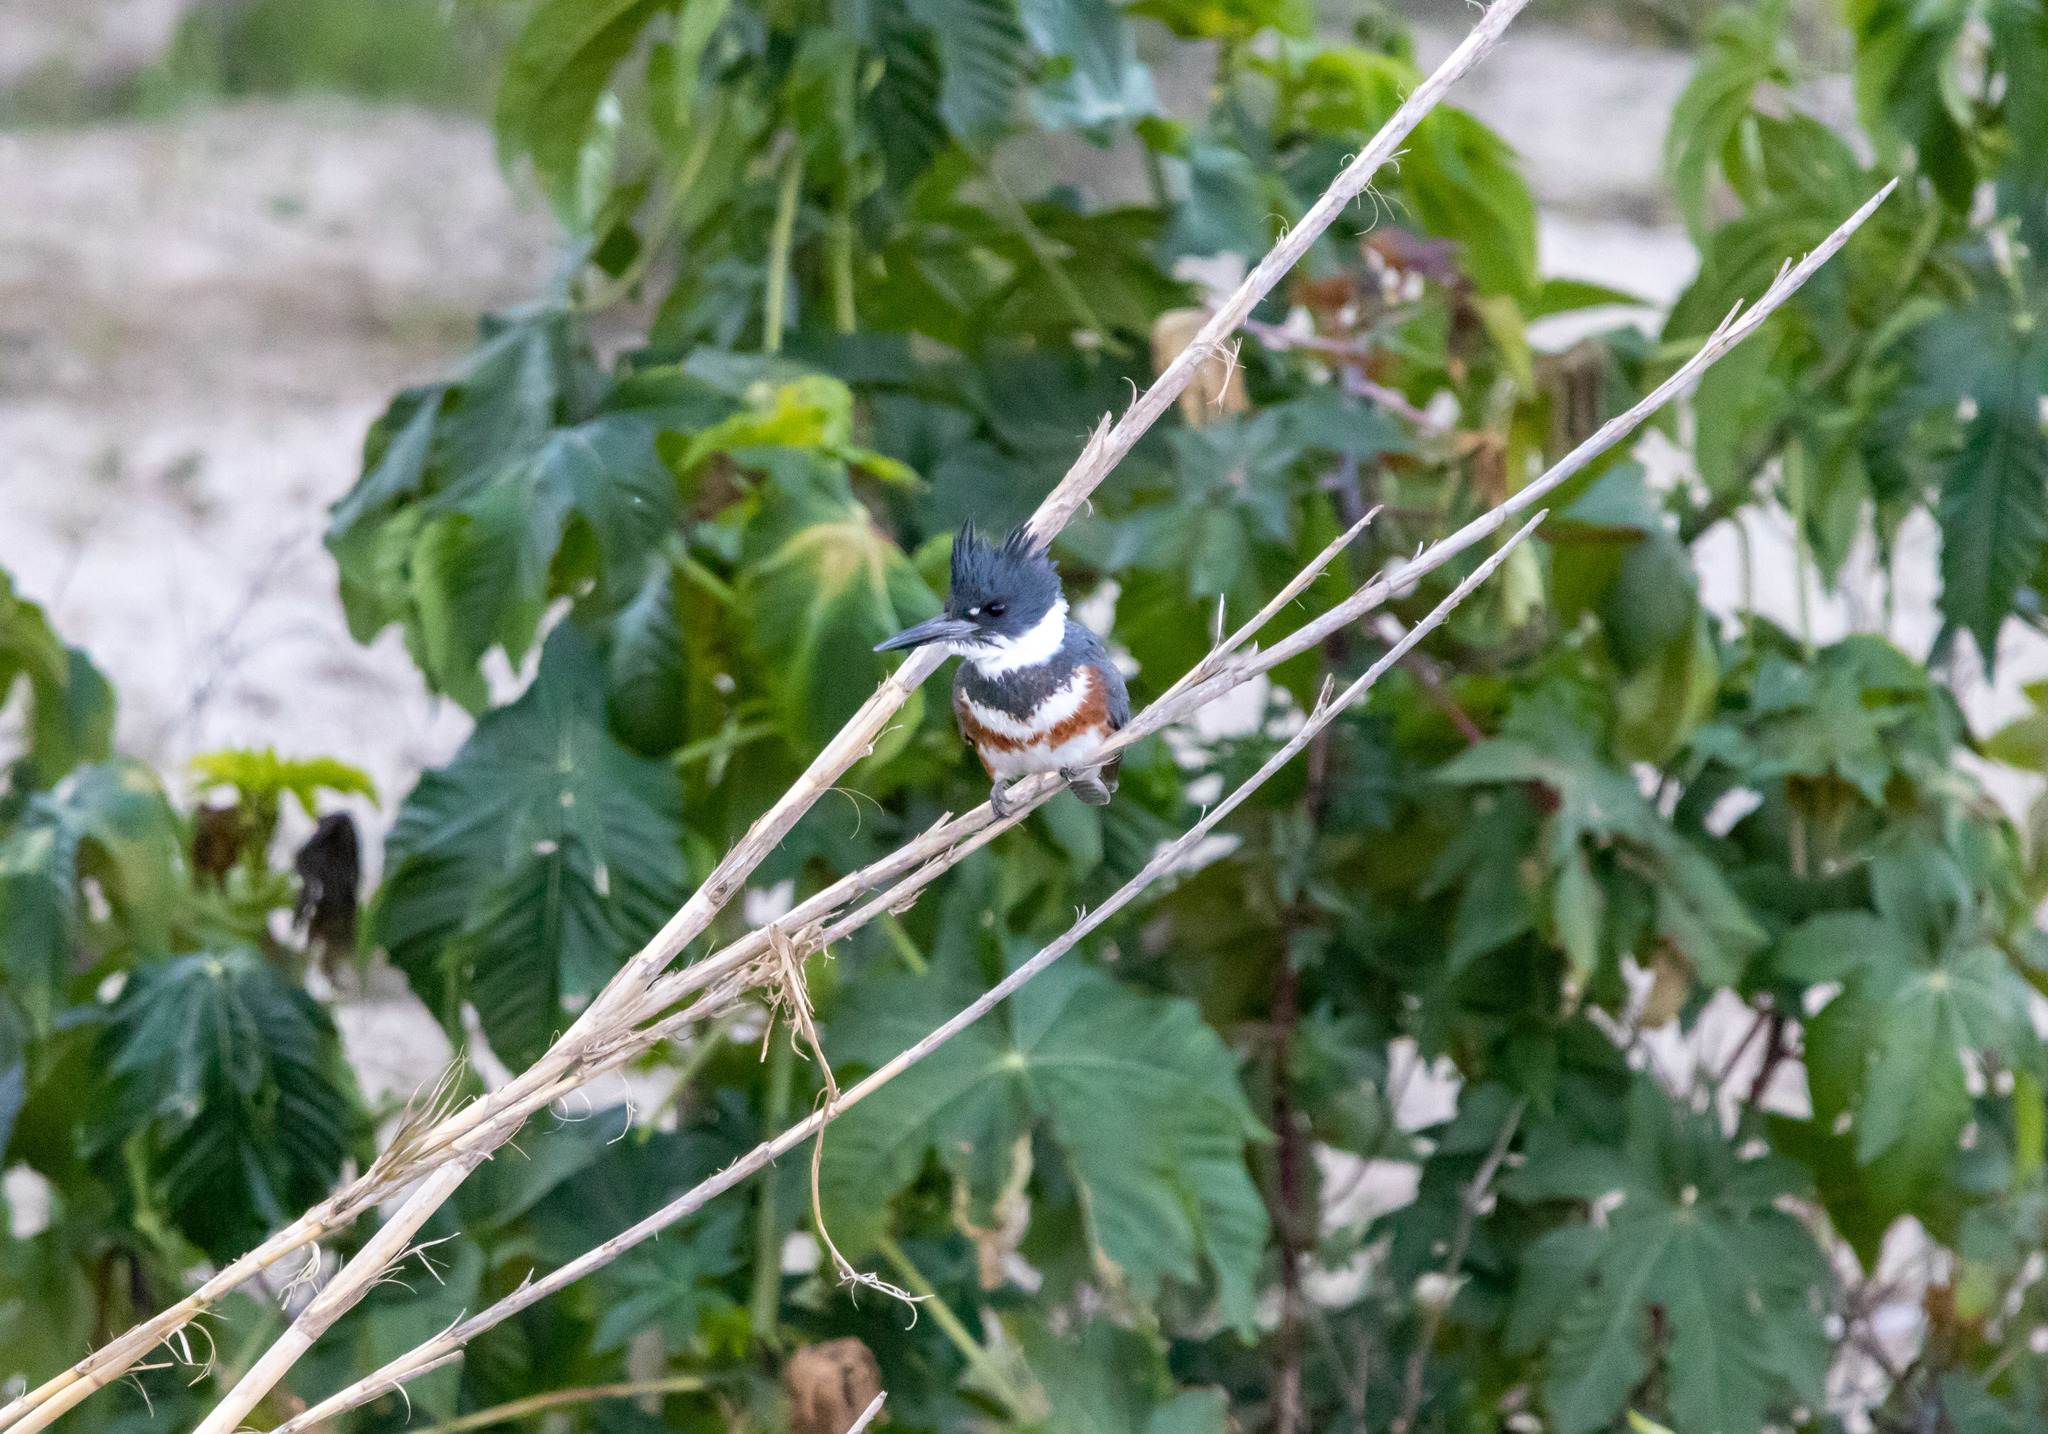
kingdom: Animalia
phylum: Chordata
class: Aves
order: Coraciiformes
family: Alcedinidae
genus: Megaceryle
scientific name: Megaceryle alcyon
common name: Belted kingfisher
